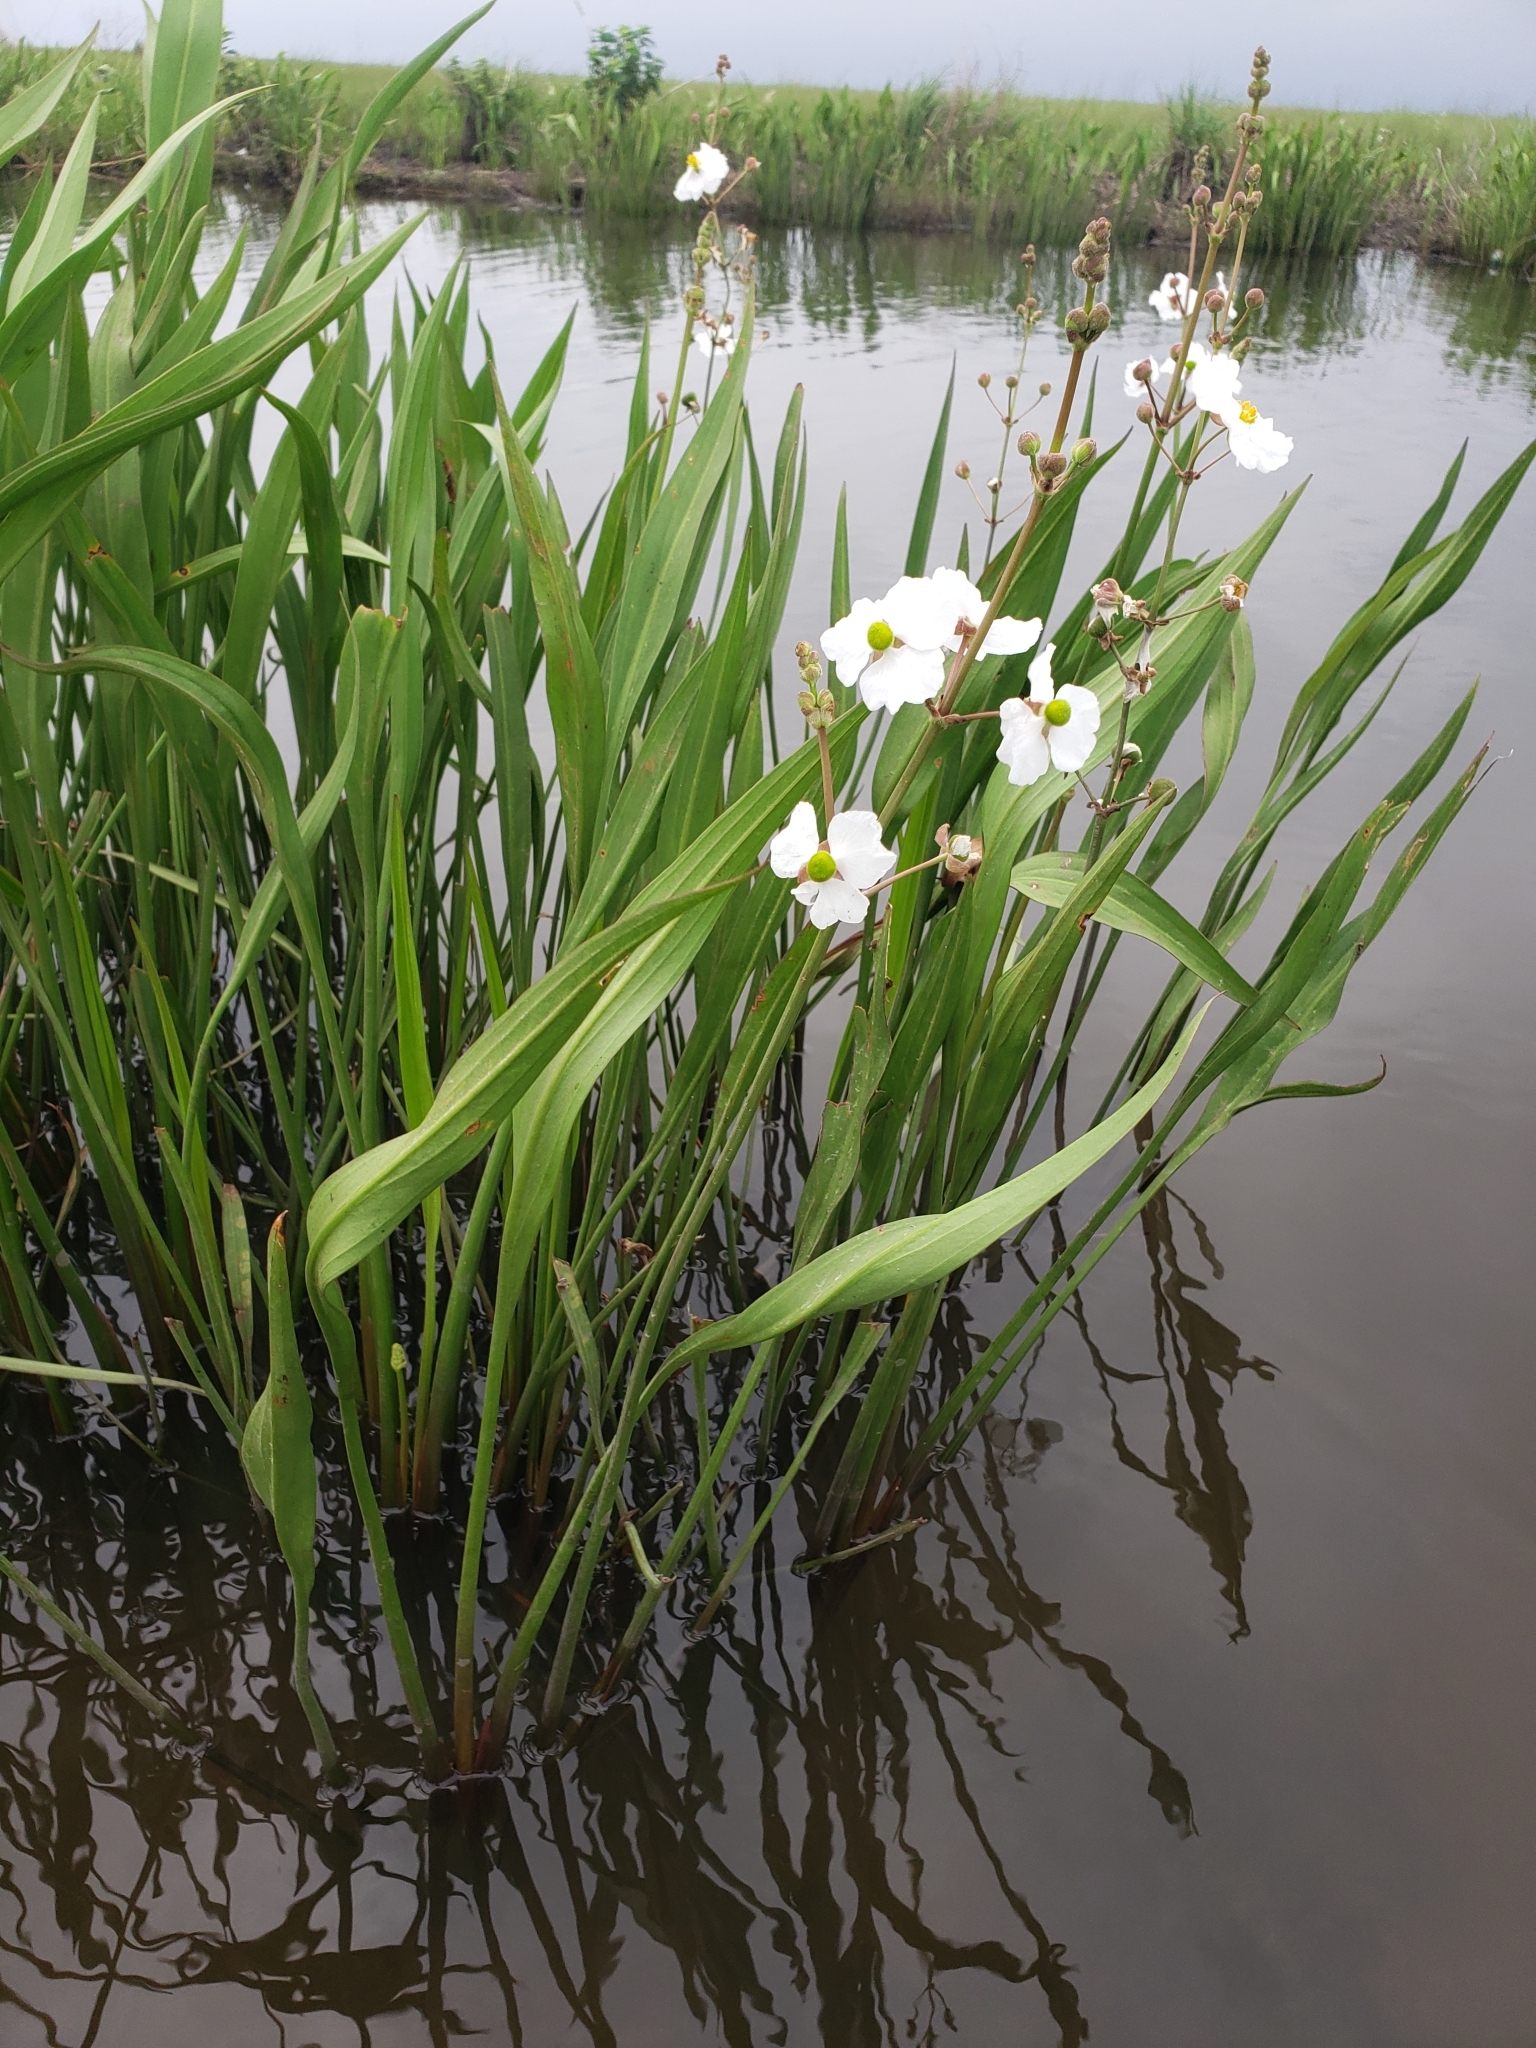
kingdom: Plantae
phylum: Tracheophyta
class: Liliopsida
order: Alismatales
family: Alismataceae
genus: Sagittaria
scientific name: Sagittaria lancifolia
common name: Lance-leaf arrowhead
